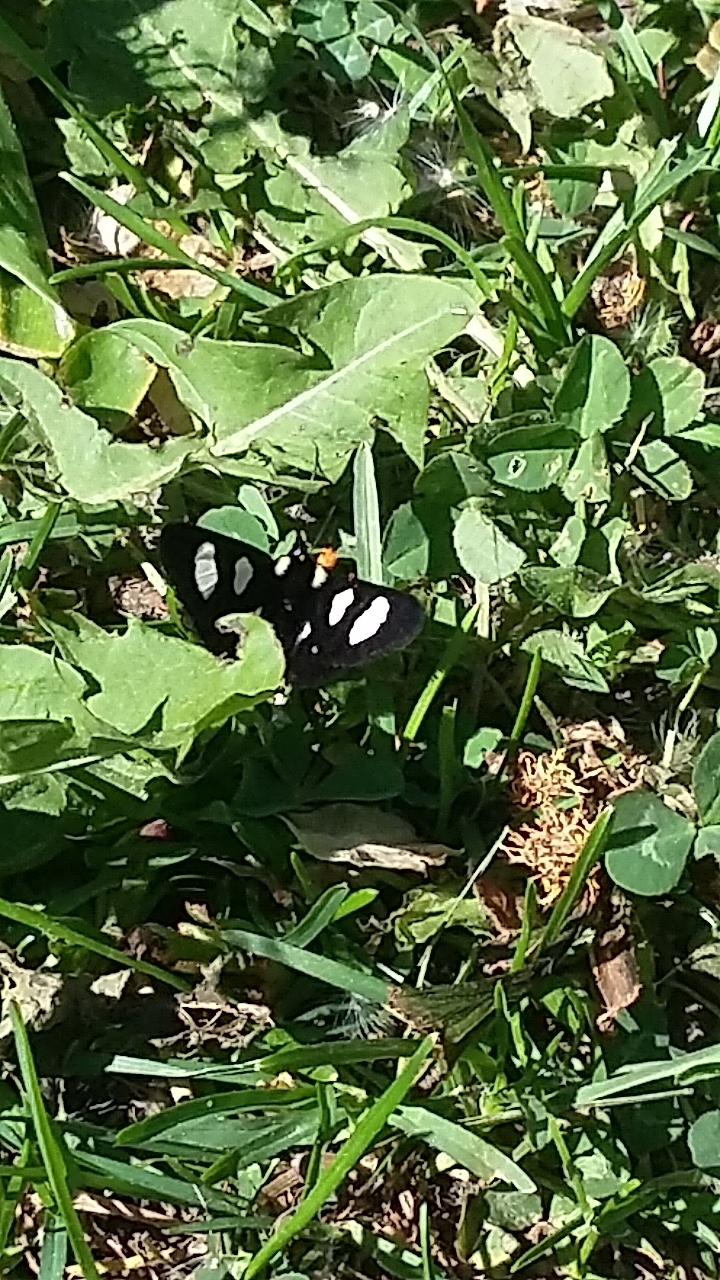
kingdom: Animalia
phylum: Arthropoda
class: Insecta
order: Lepidoptera
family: Noctuidae
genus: Alypia
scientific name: Alypia octomaculata
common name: Eight-spotted forester
